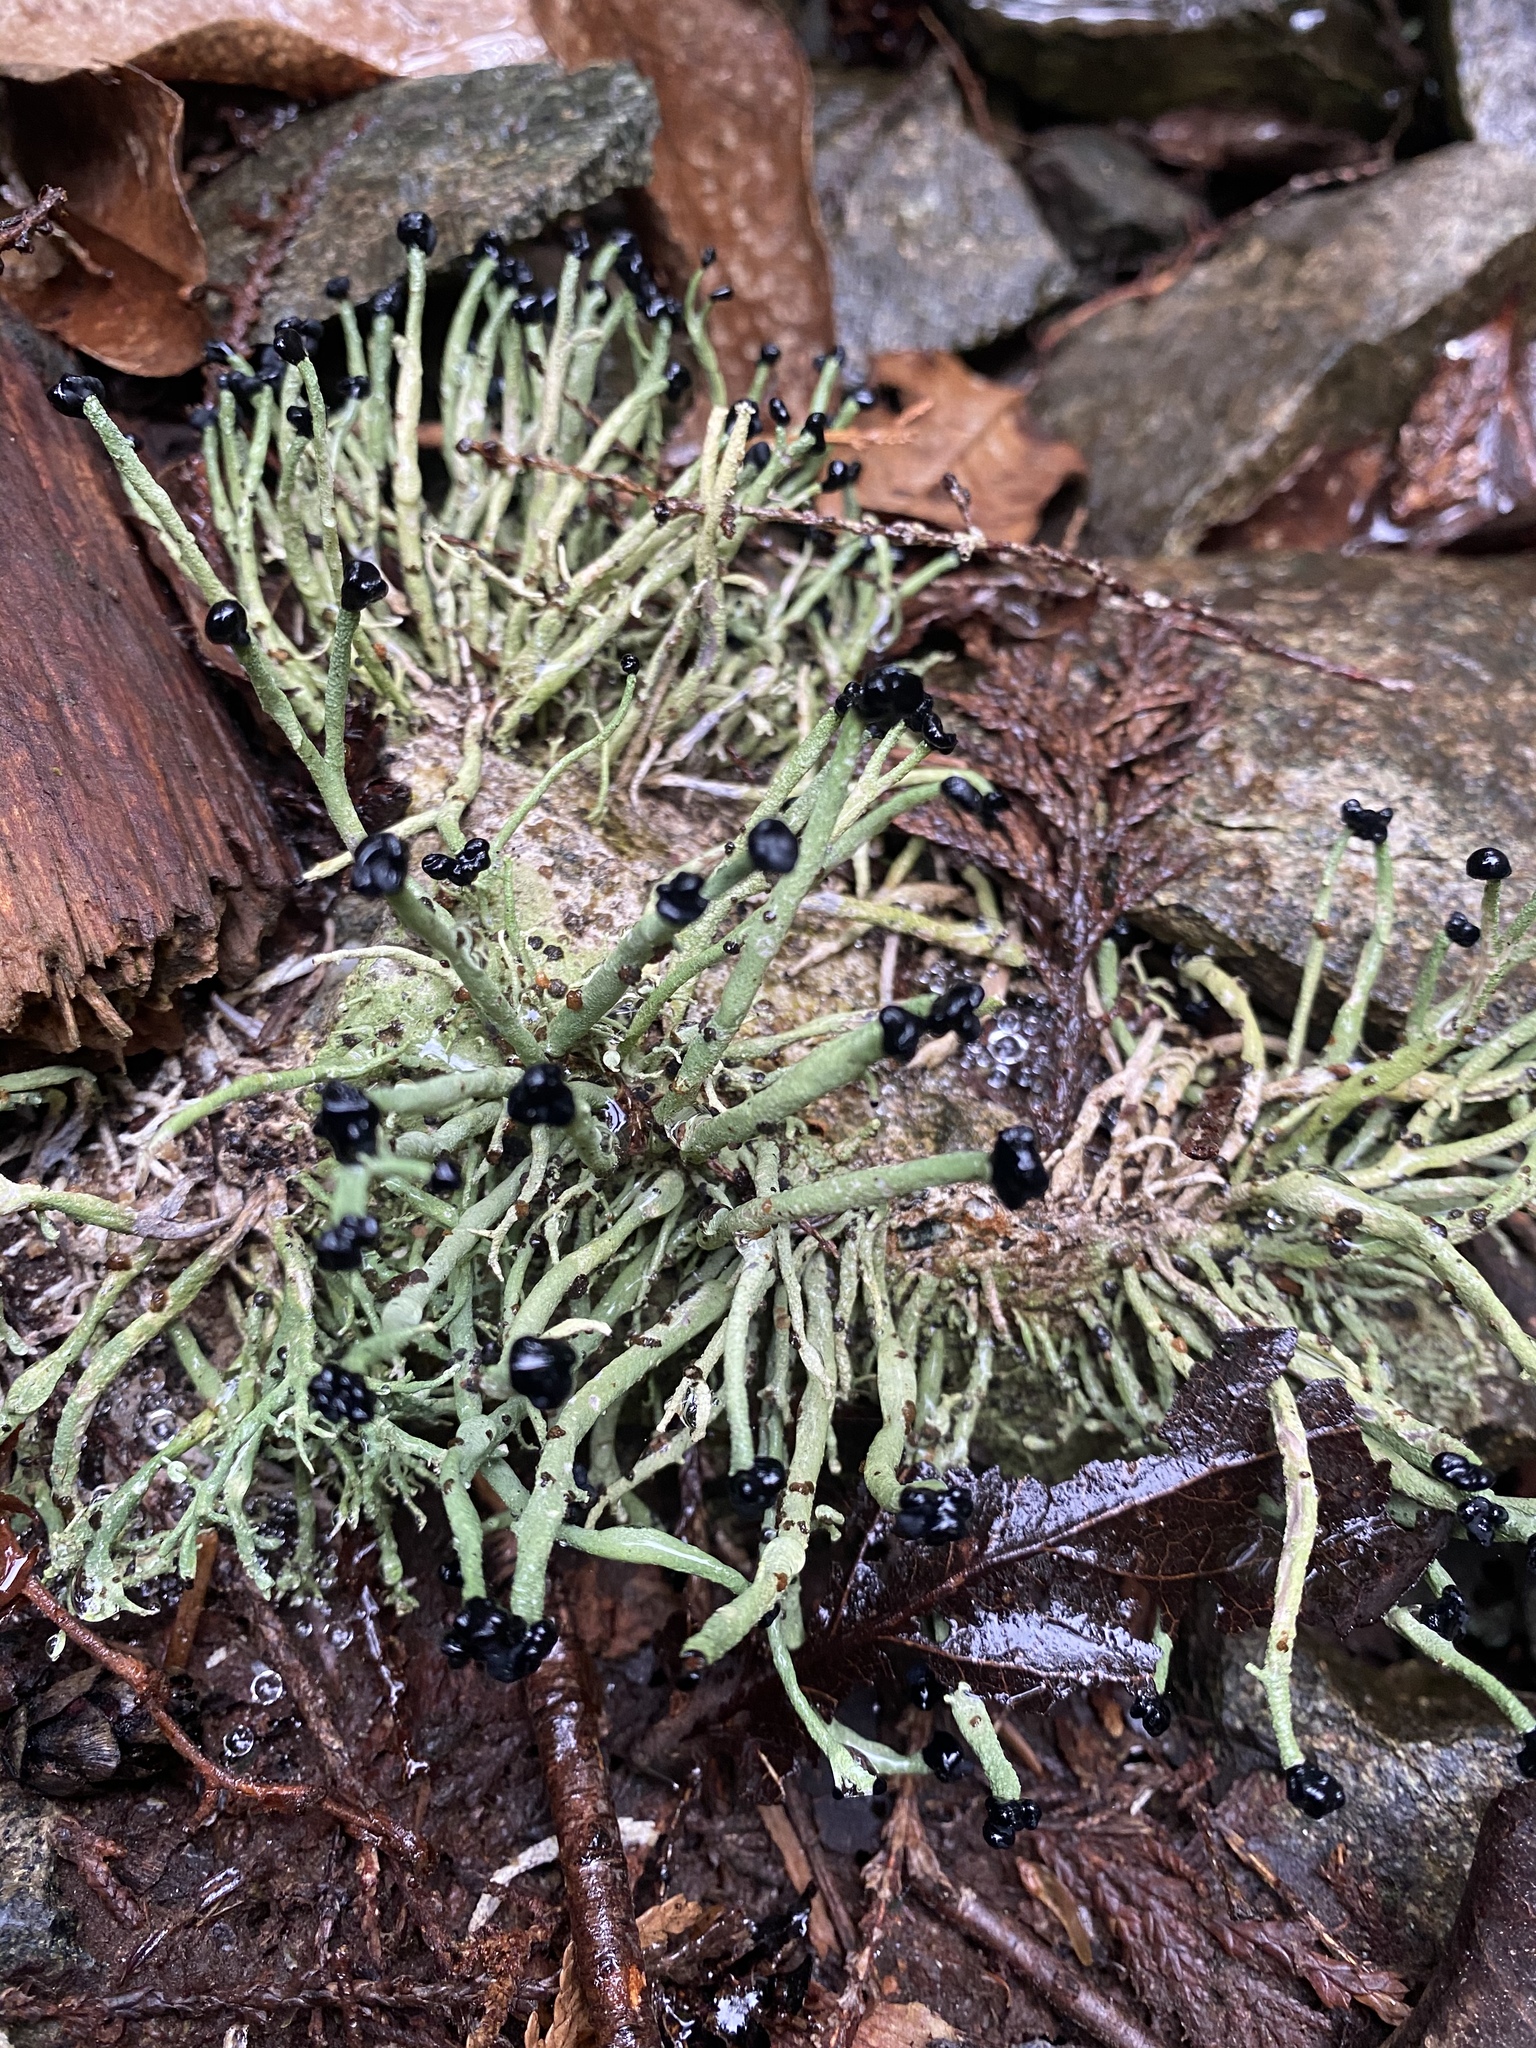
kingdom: Fungi
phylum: Ascomycota
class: Lecanoromycetes
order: Lecanorales
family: Cladoniaceae
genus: Pilophorus
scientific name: Pilophorus acicularis
